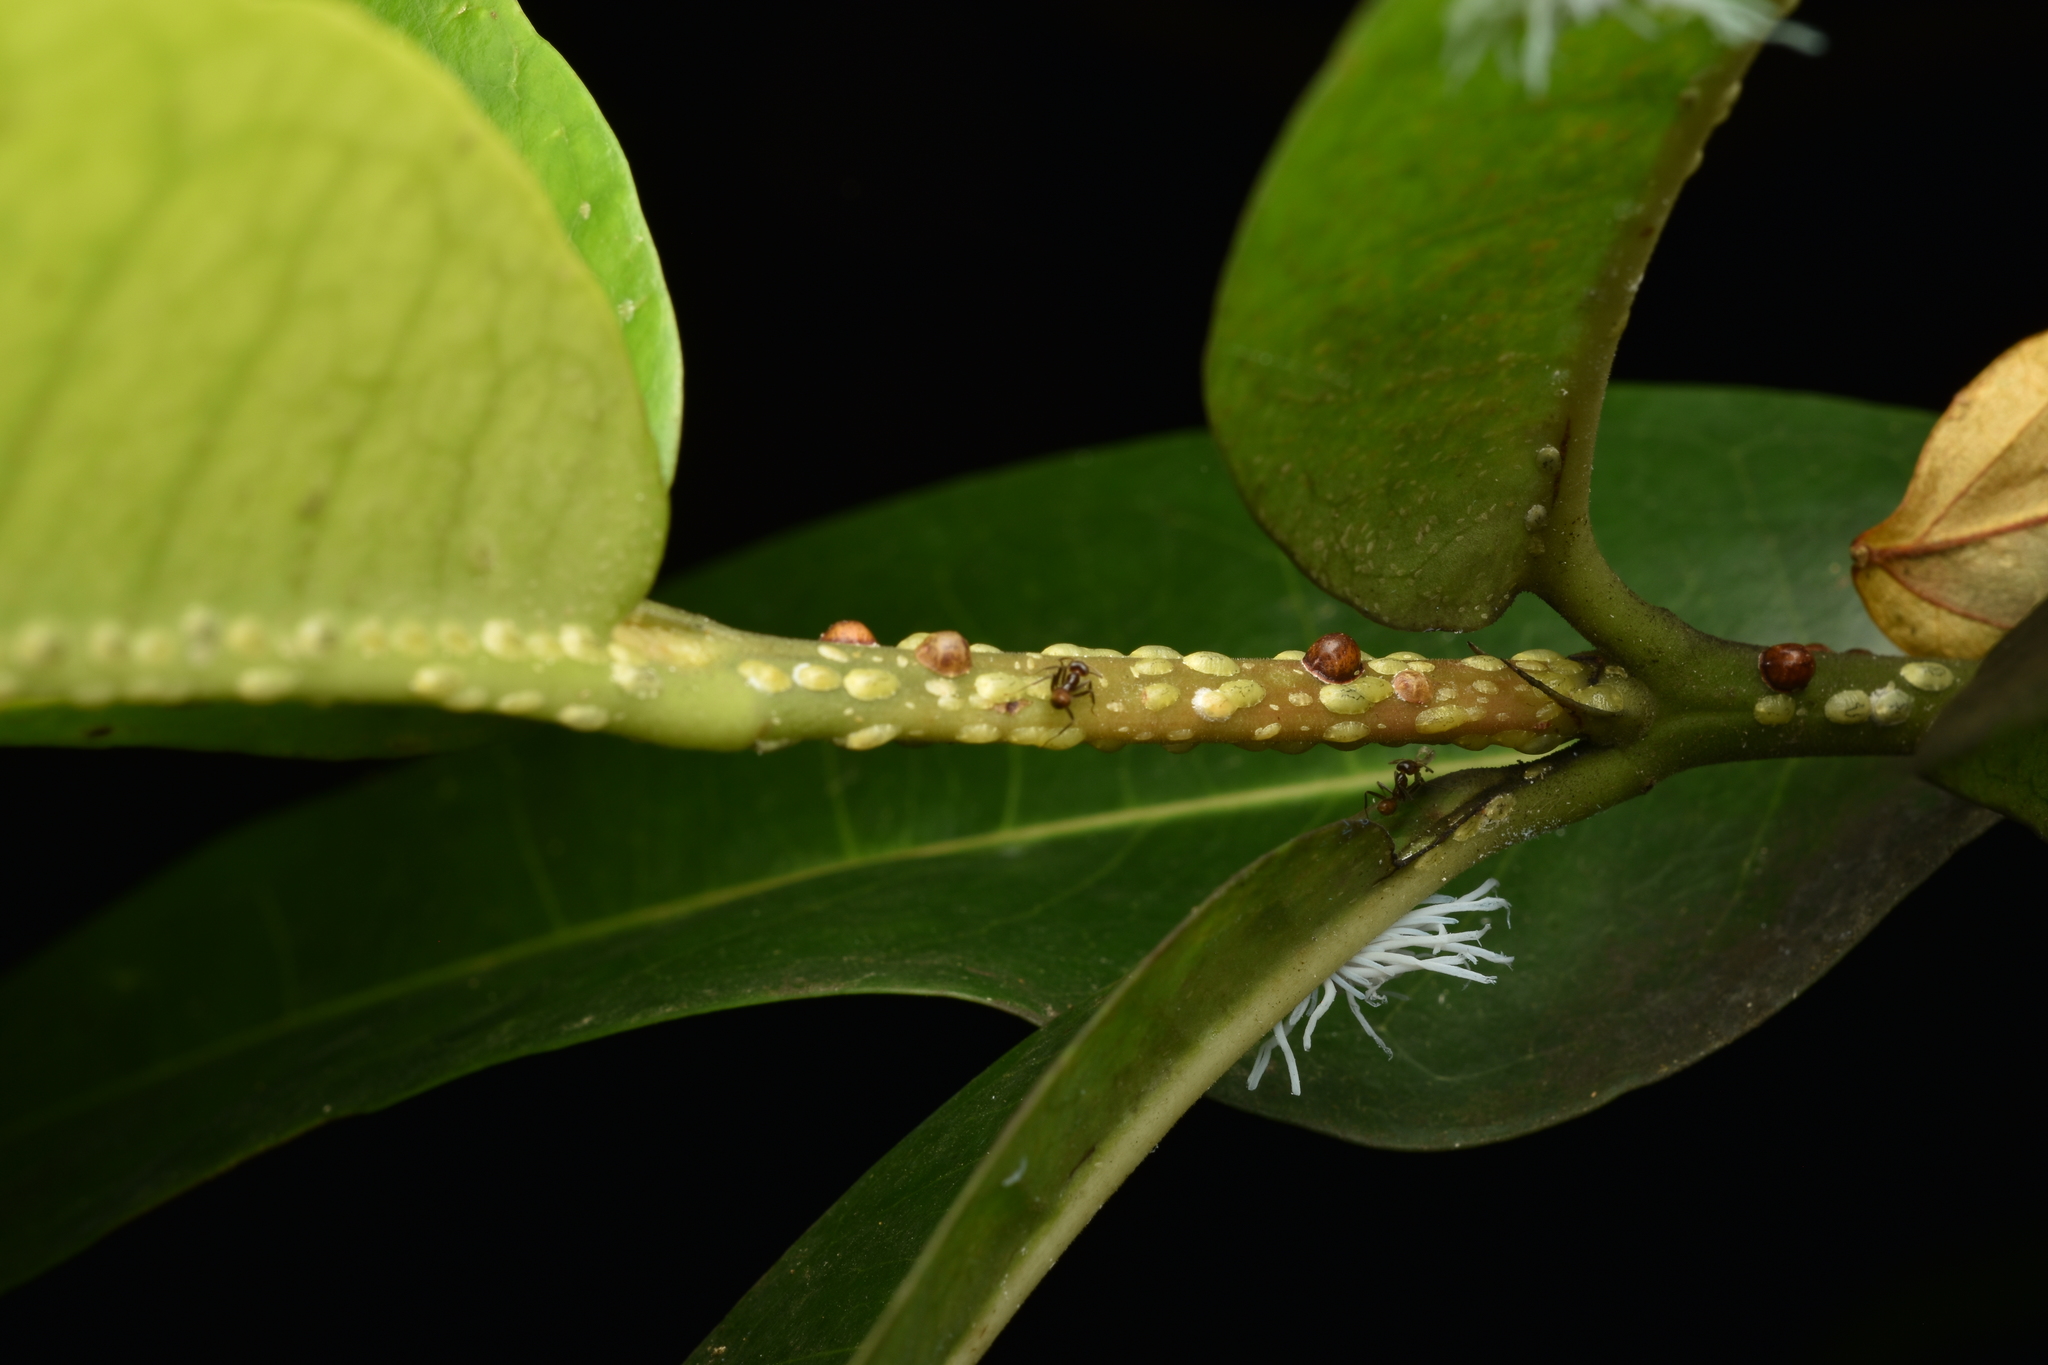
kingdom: Animalia
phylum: Arthropoda
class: Insecta
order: Hemiptera
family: Coccidae
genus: Coccus
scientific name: Coccus viridis
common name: Green scale
